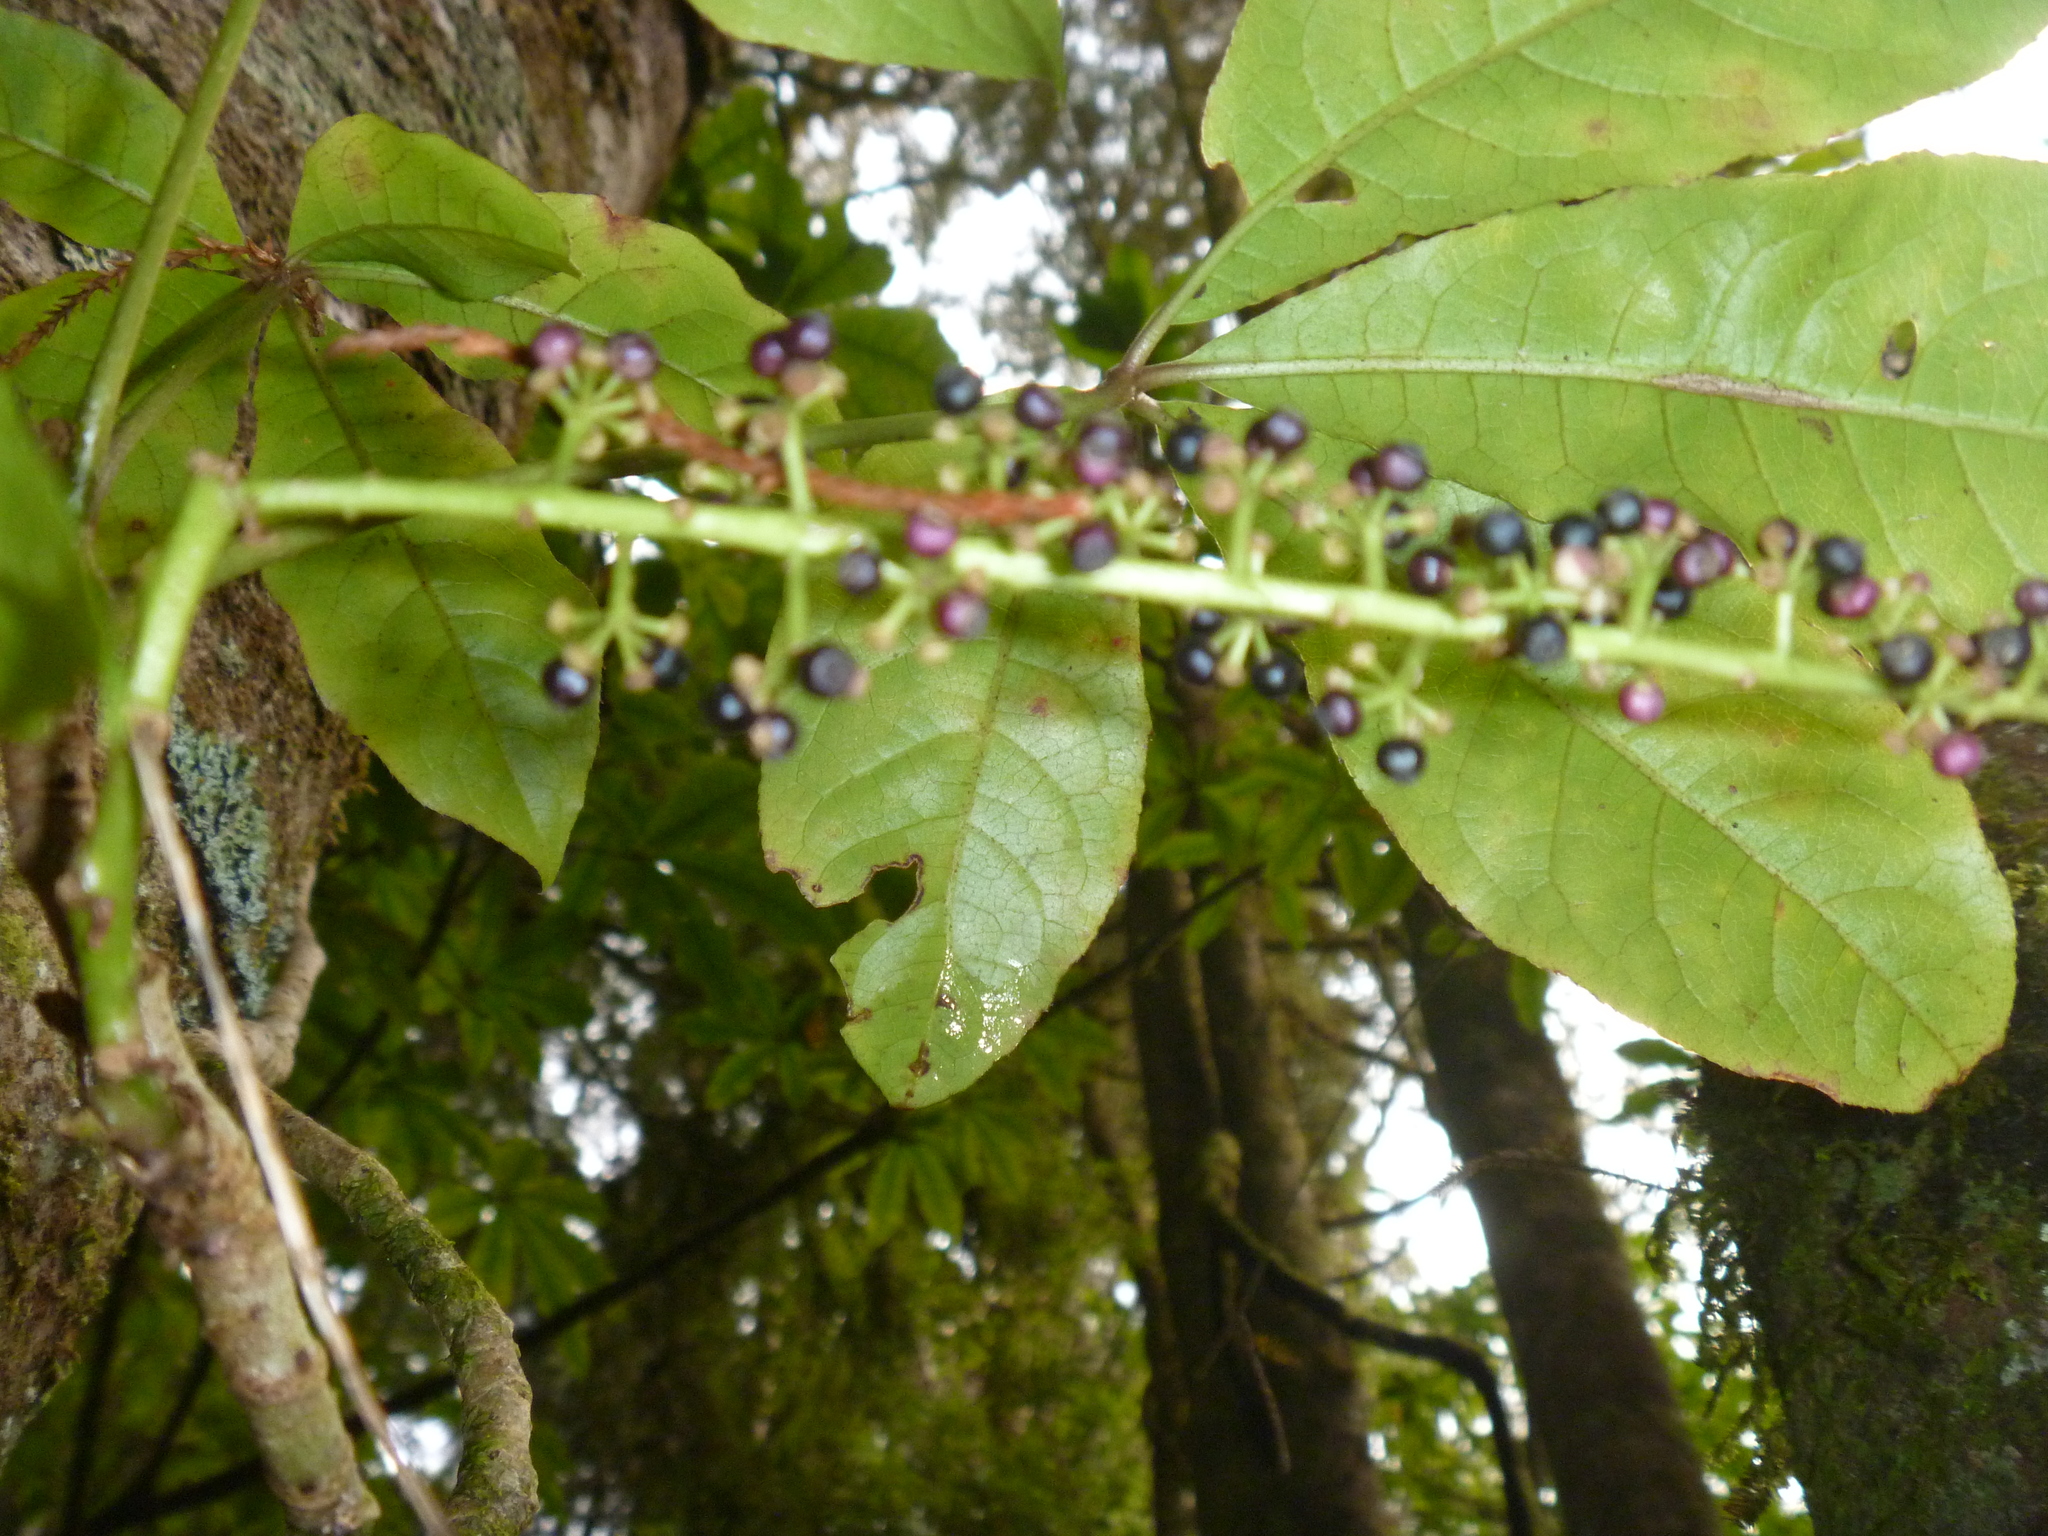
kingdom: Plantae
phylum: Tracheophyta
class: Magnoliopsida
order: Apiales
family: Araliaceae
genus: Schefflera
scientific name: Schefflera digitata
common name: Pate
